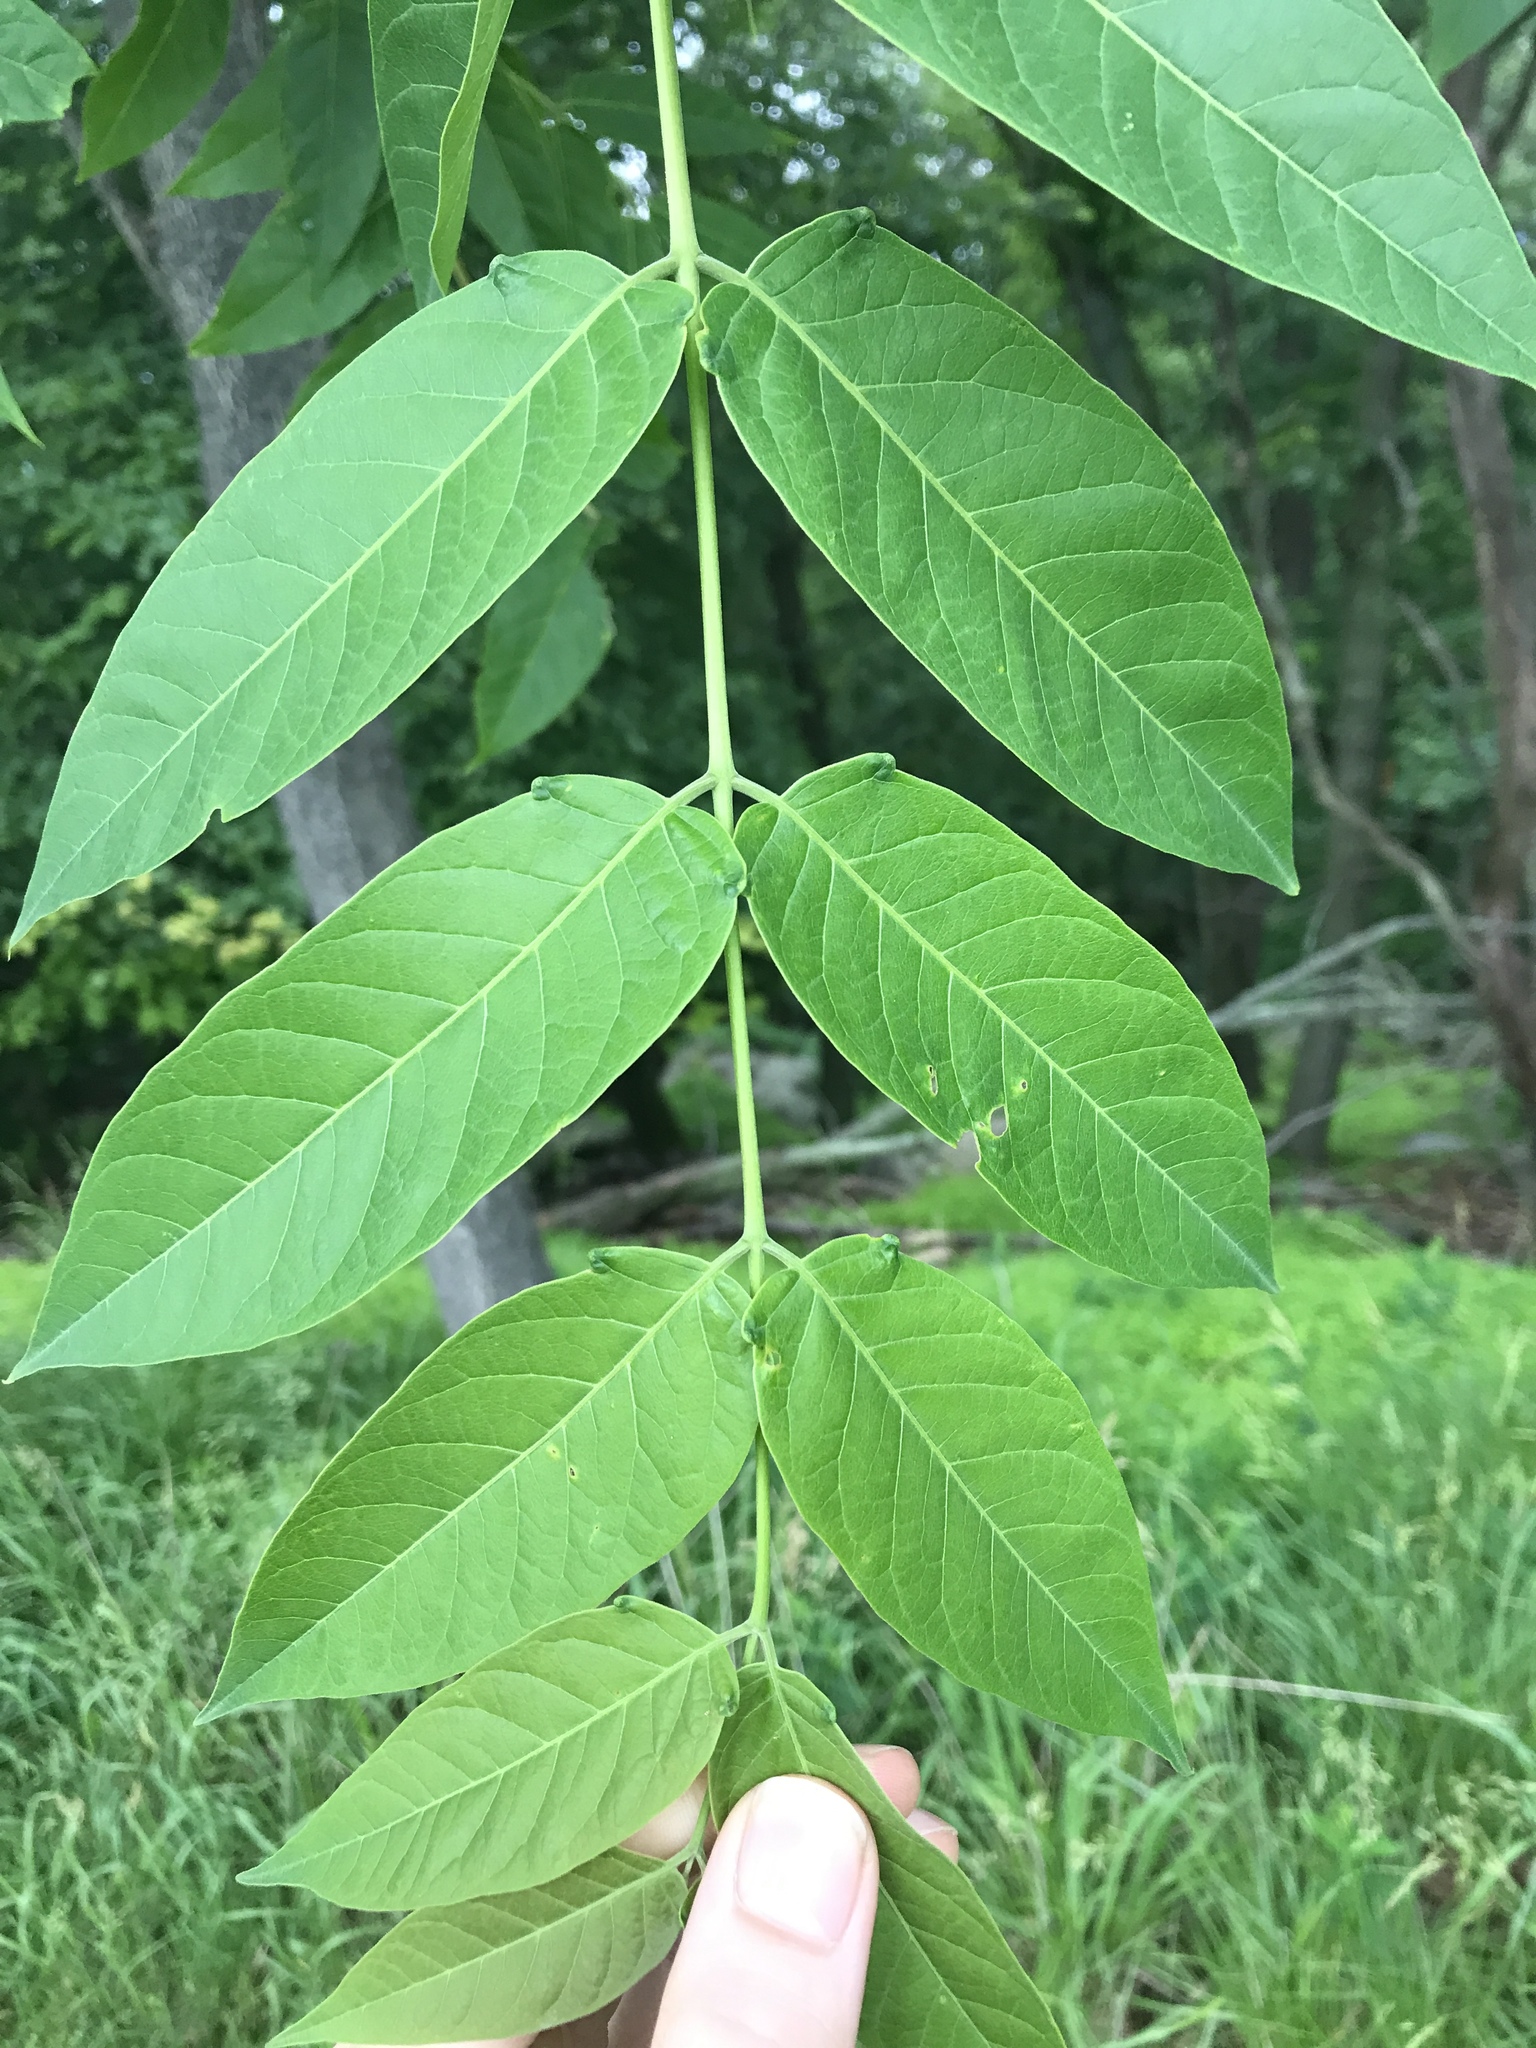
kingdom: Plantae
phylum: Tracheophyta
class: Magnoliopsida
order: Sapindales
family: Simaroubaceae
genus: Ailanthus
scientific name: Ailanthus altissima
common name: Tree-of-heaven
